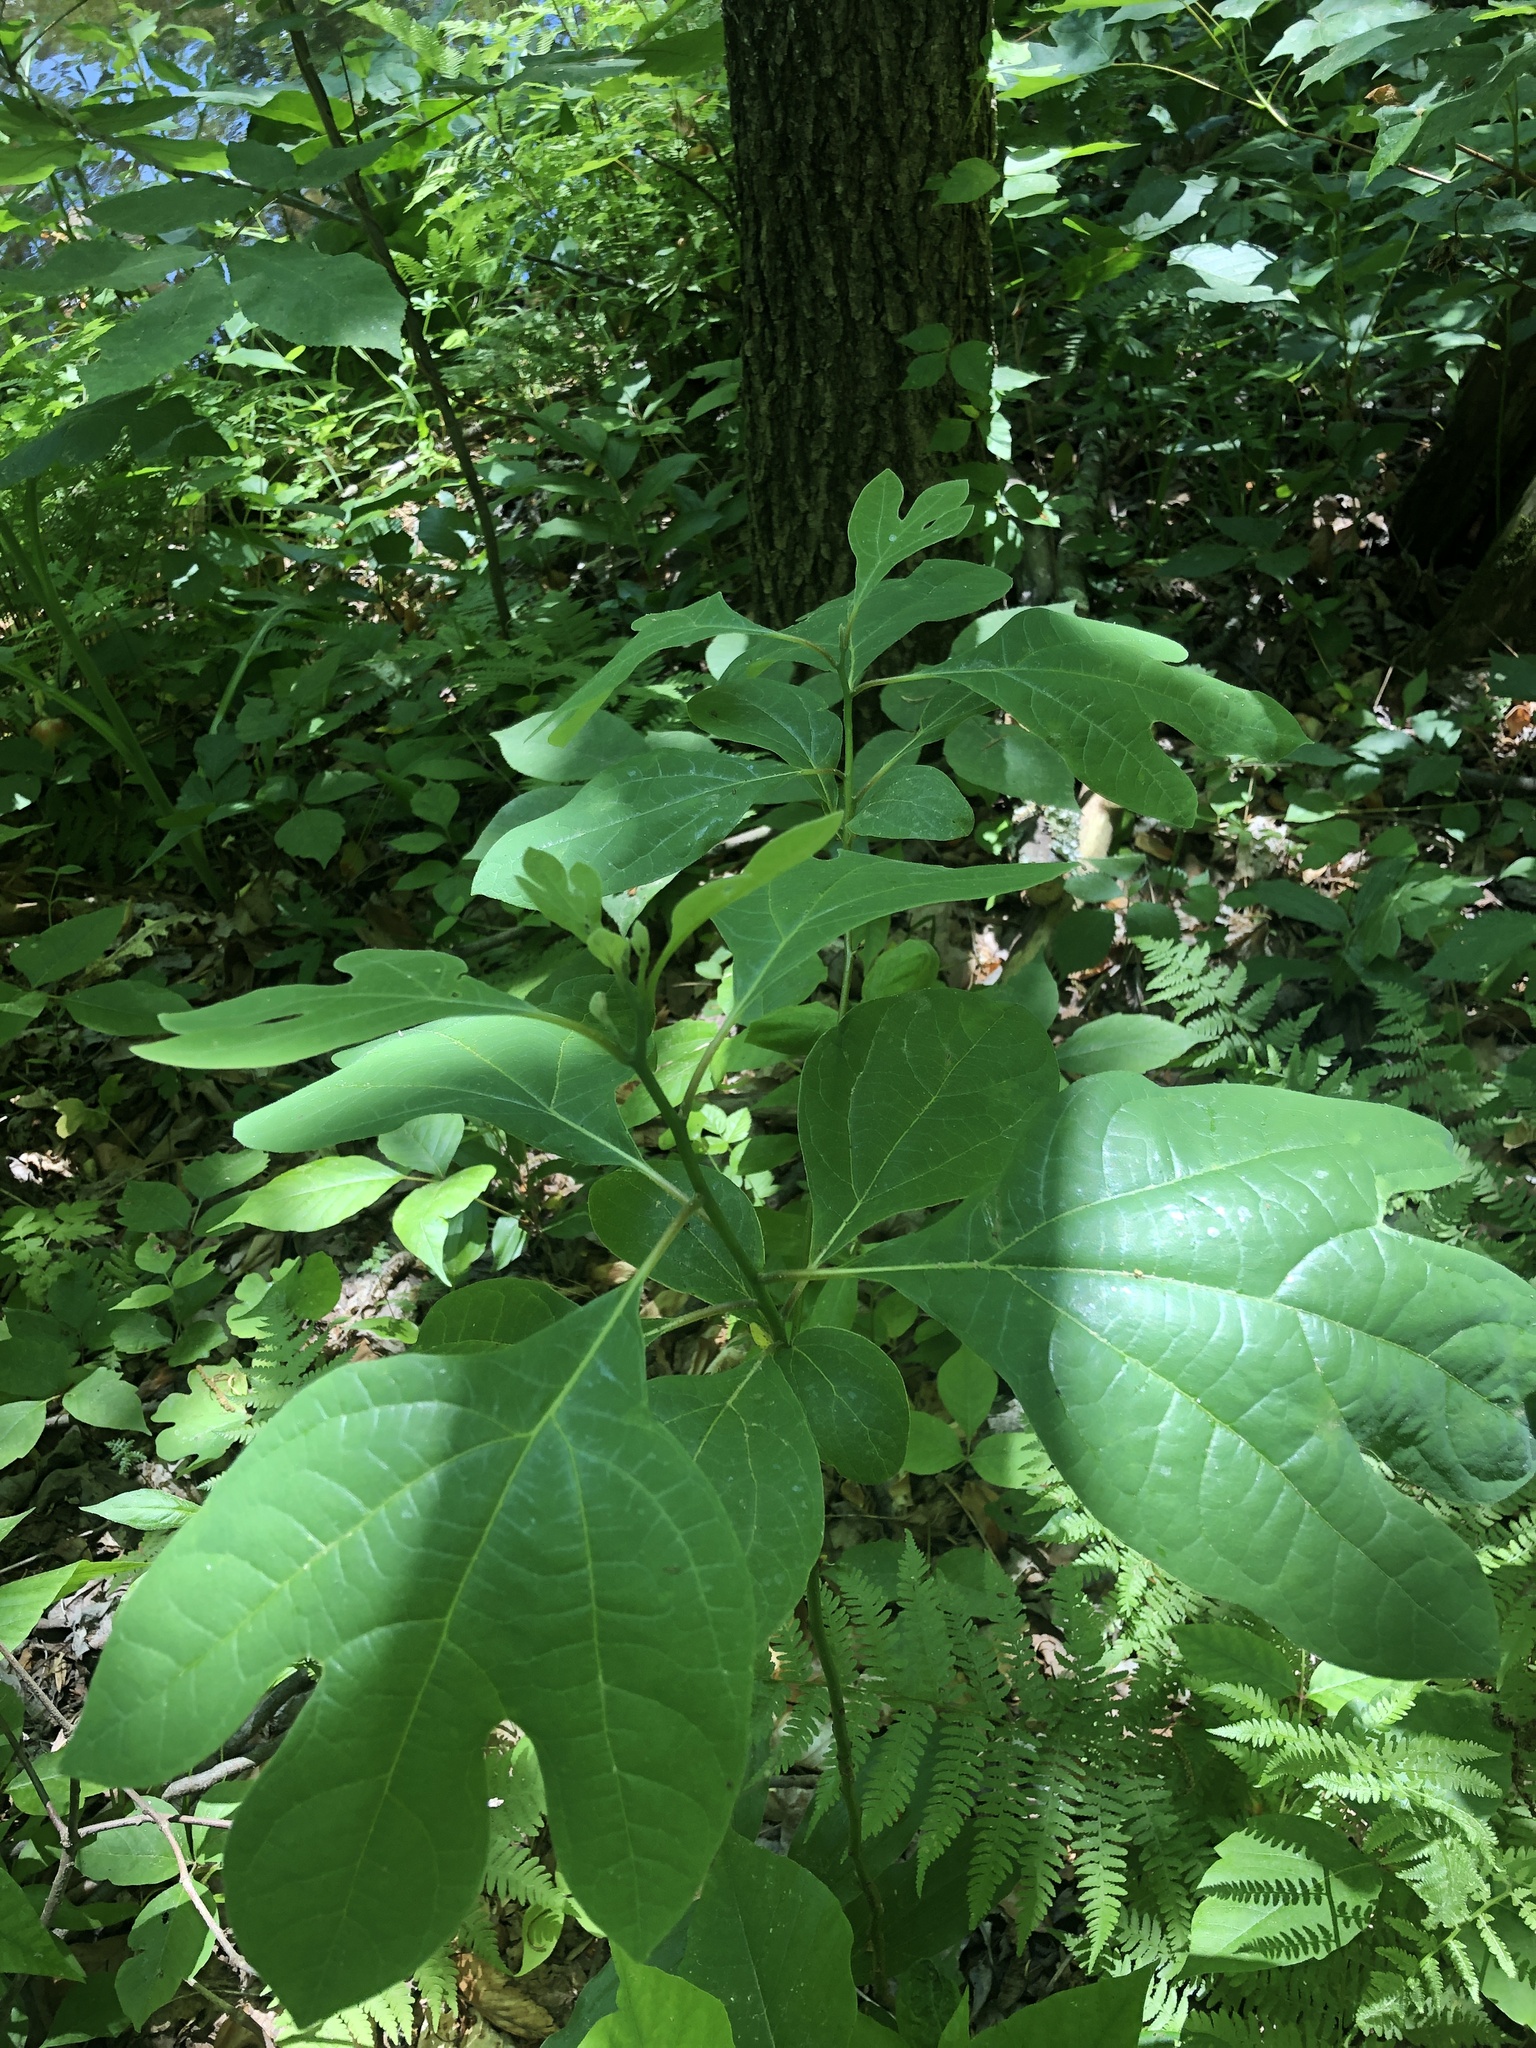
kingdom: Plantae
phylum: Tracheophyta
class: Magnoliopsida
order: Laurales
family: Lauraceae
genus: Sassafras
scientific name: Sassafras albidum
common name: Sassafras
